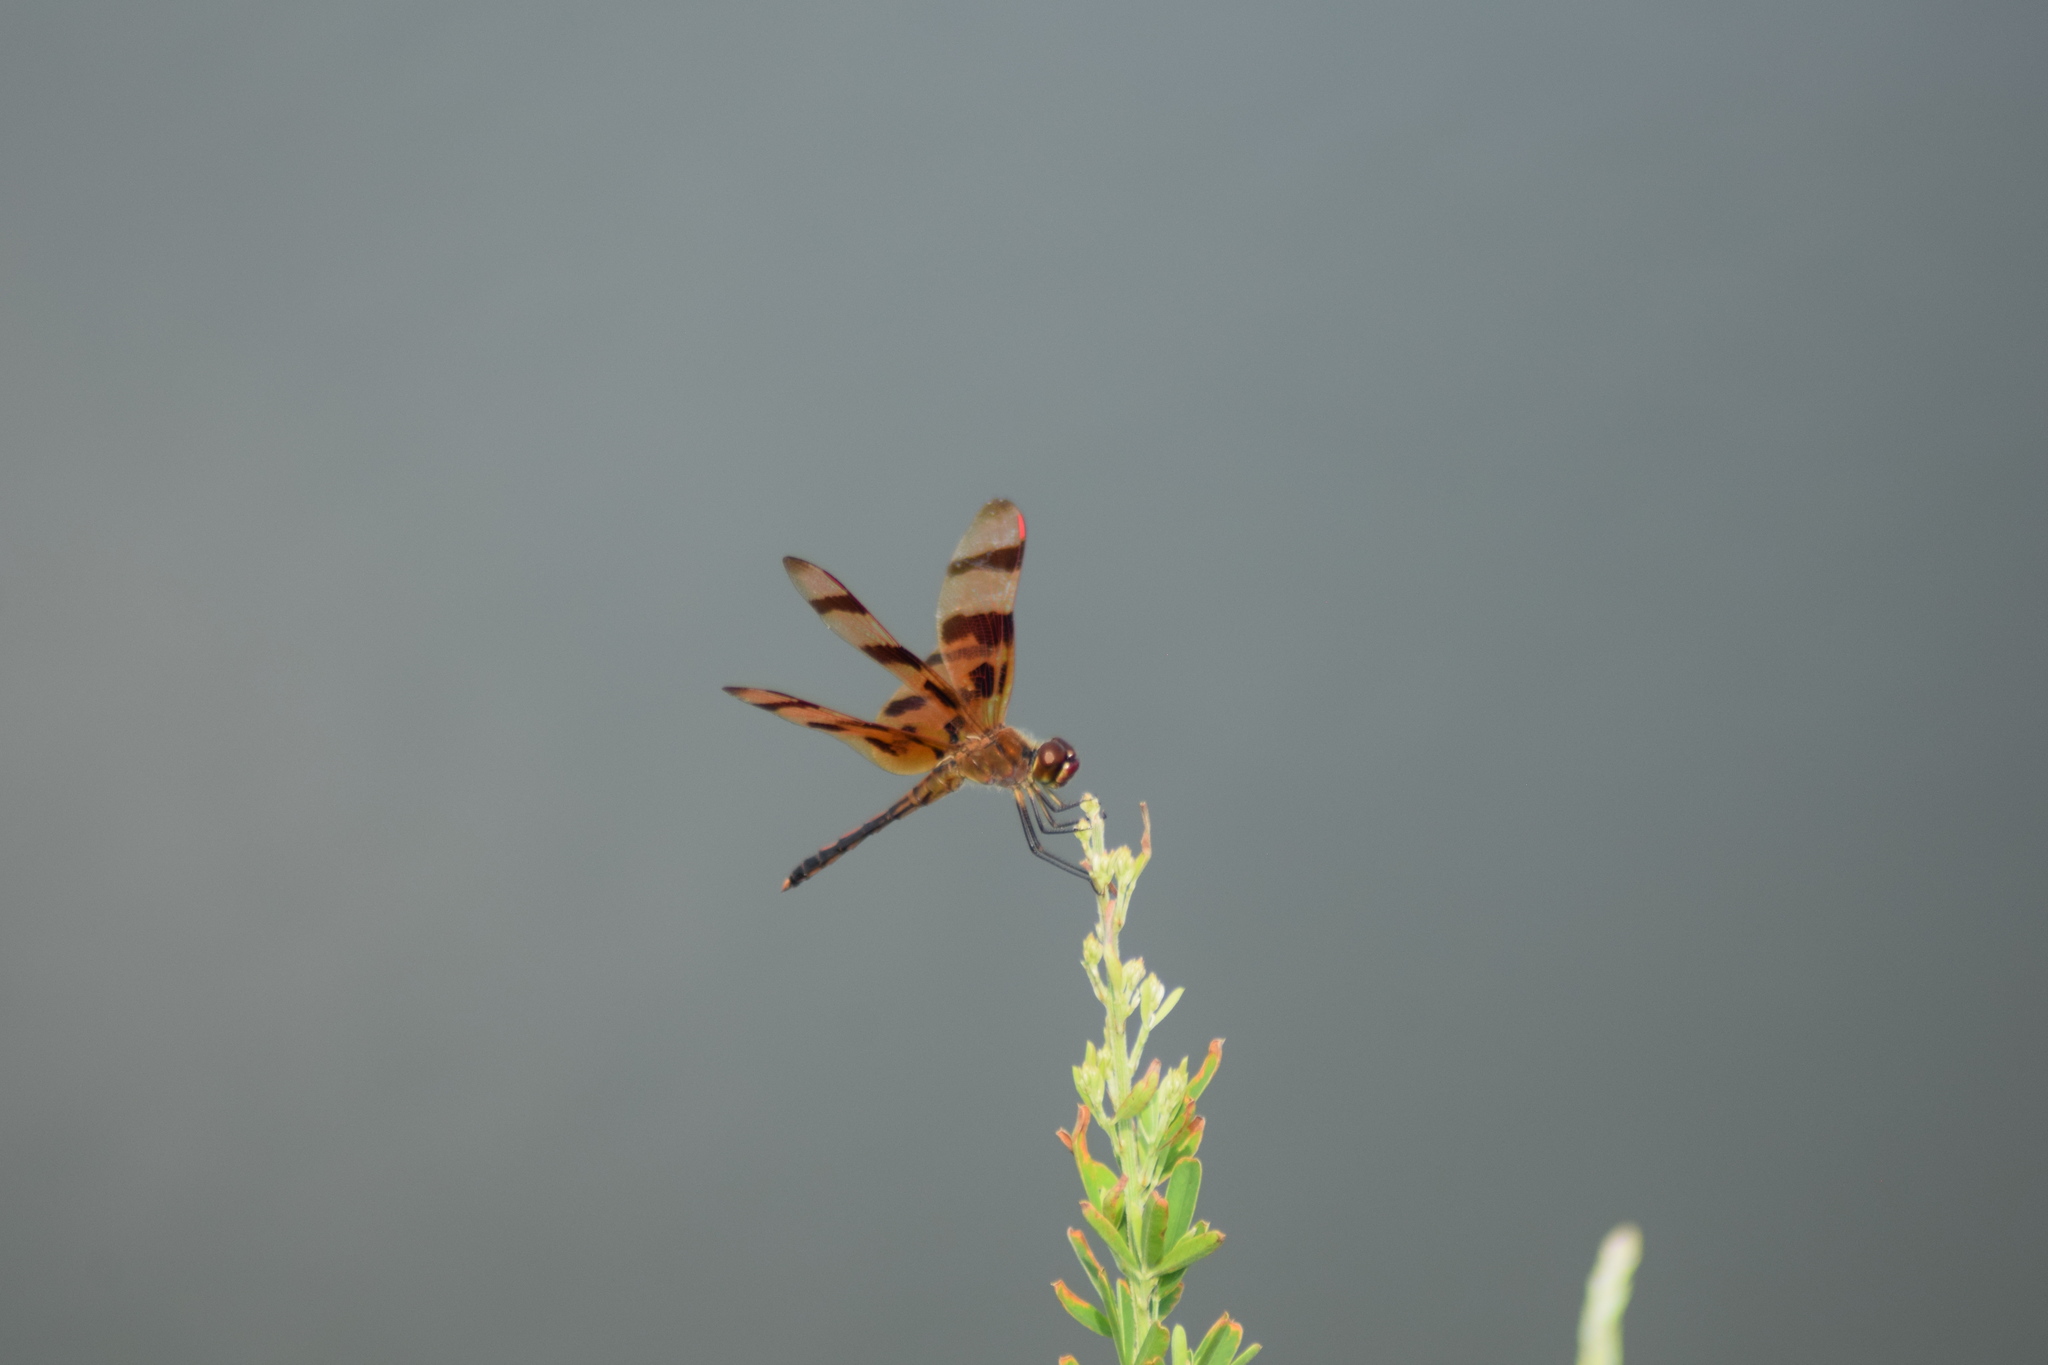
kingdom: Animalia
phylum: Arthropoda
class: Insecta
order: Odonata
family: Libellulidae
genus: Celithemis
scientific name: Celithemis eponina
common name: Halloween pennant
